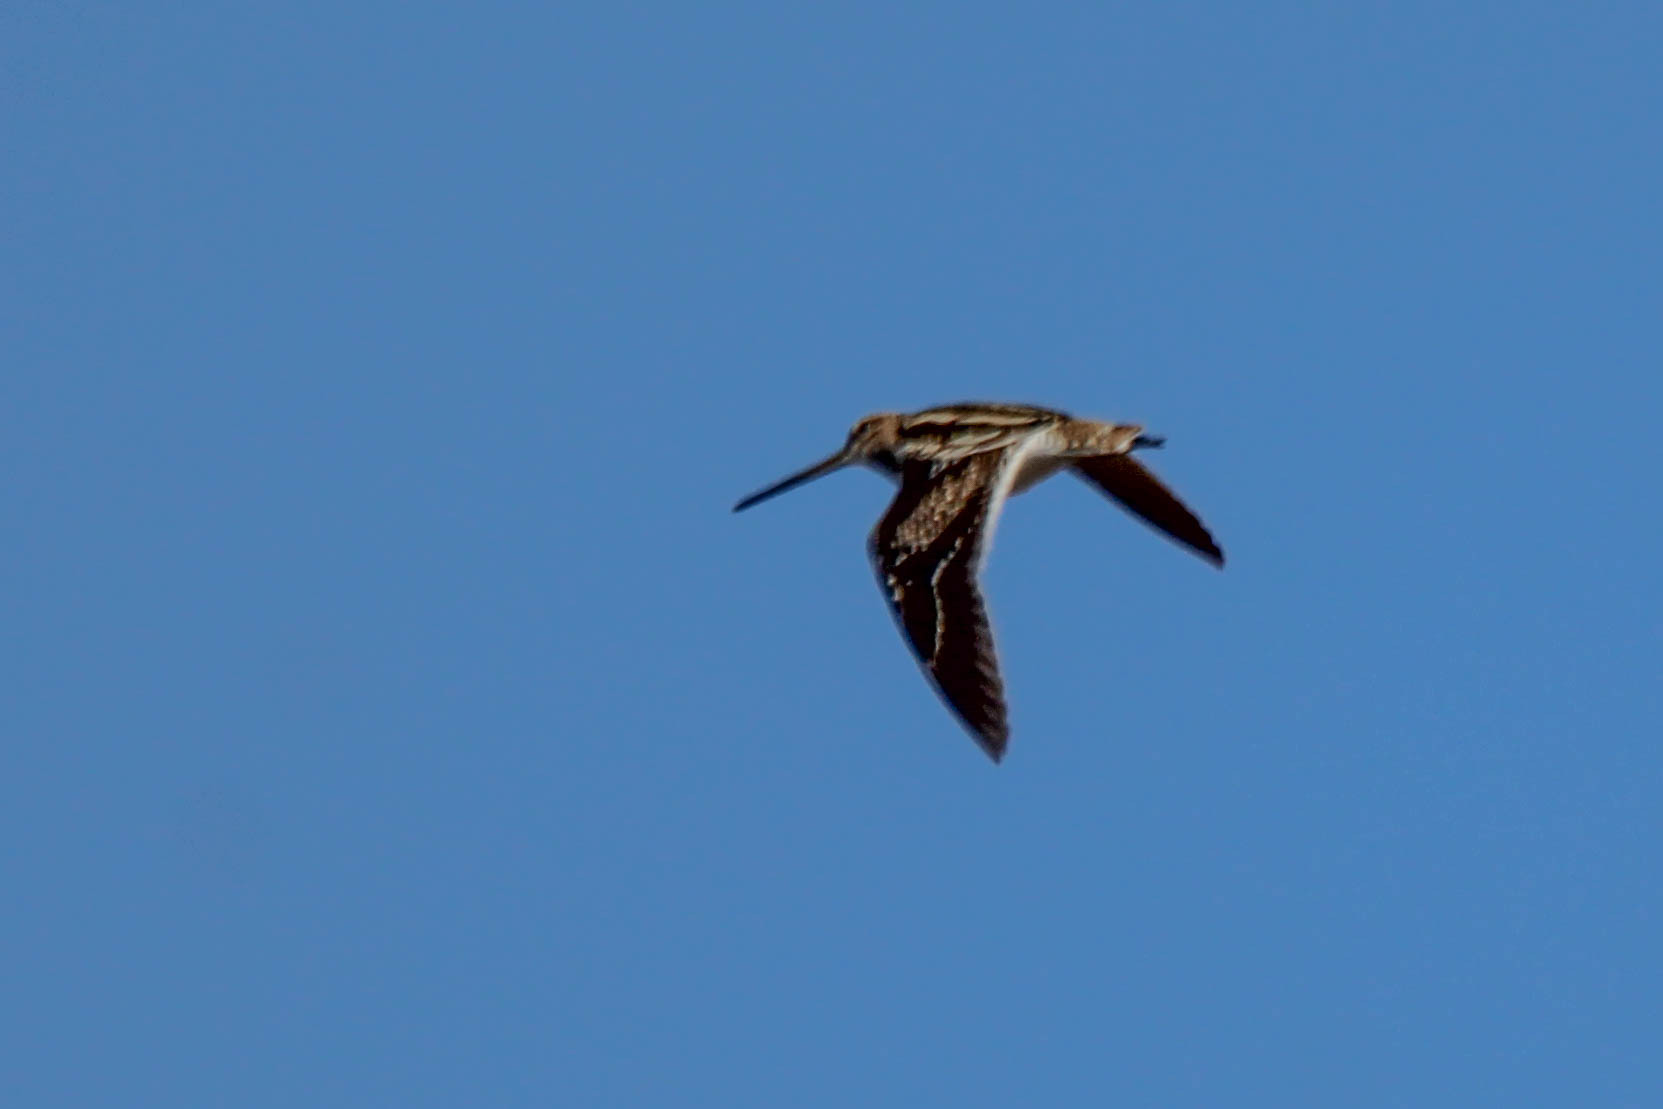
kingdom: Animalia
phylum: Chordata
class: Aves
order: Charadriiformes
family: Scolopacidae
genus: Gallinago
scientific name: Gallinago gallinago
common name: Common snipe
